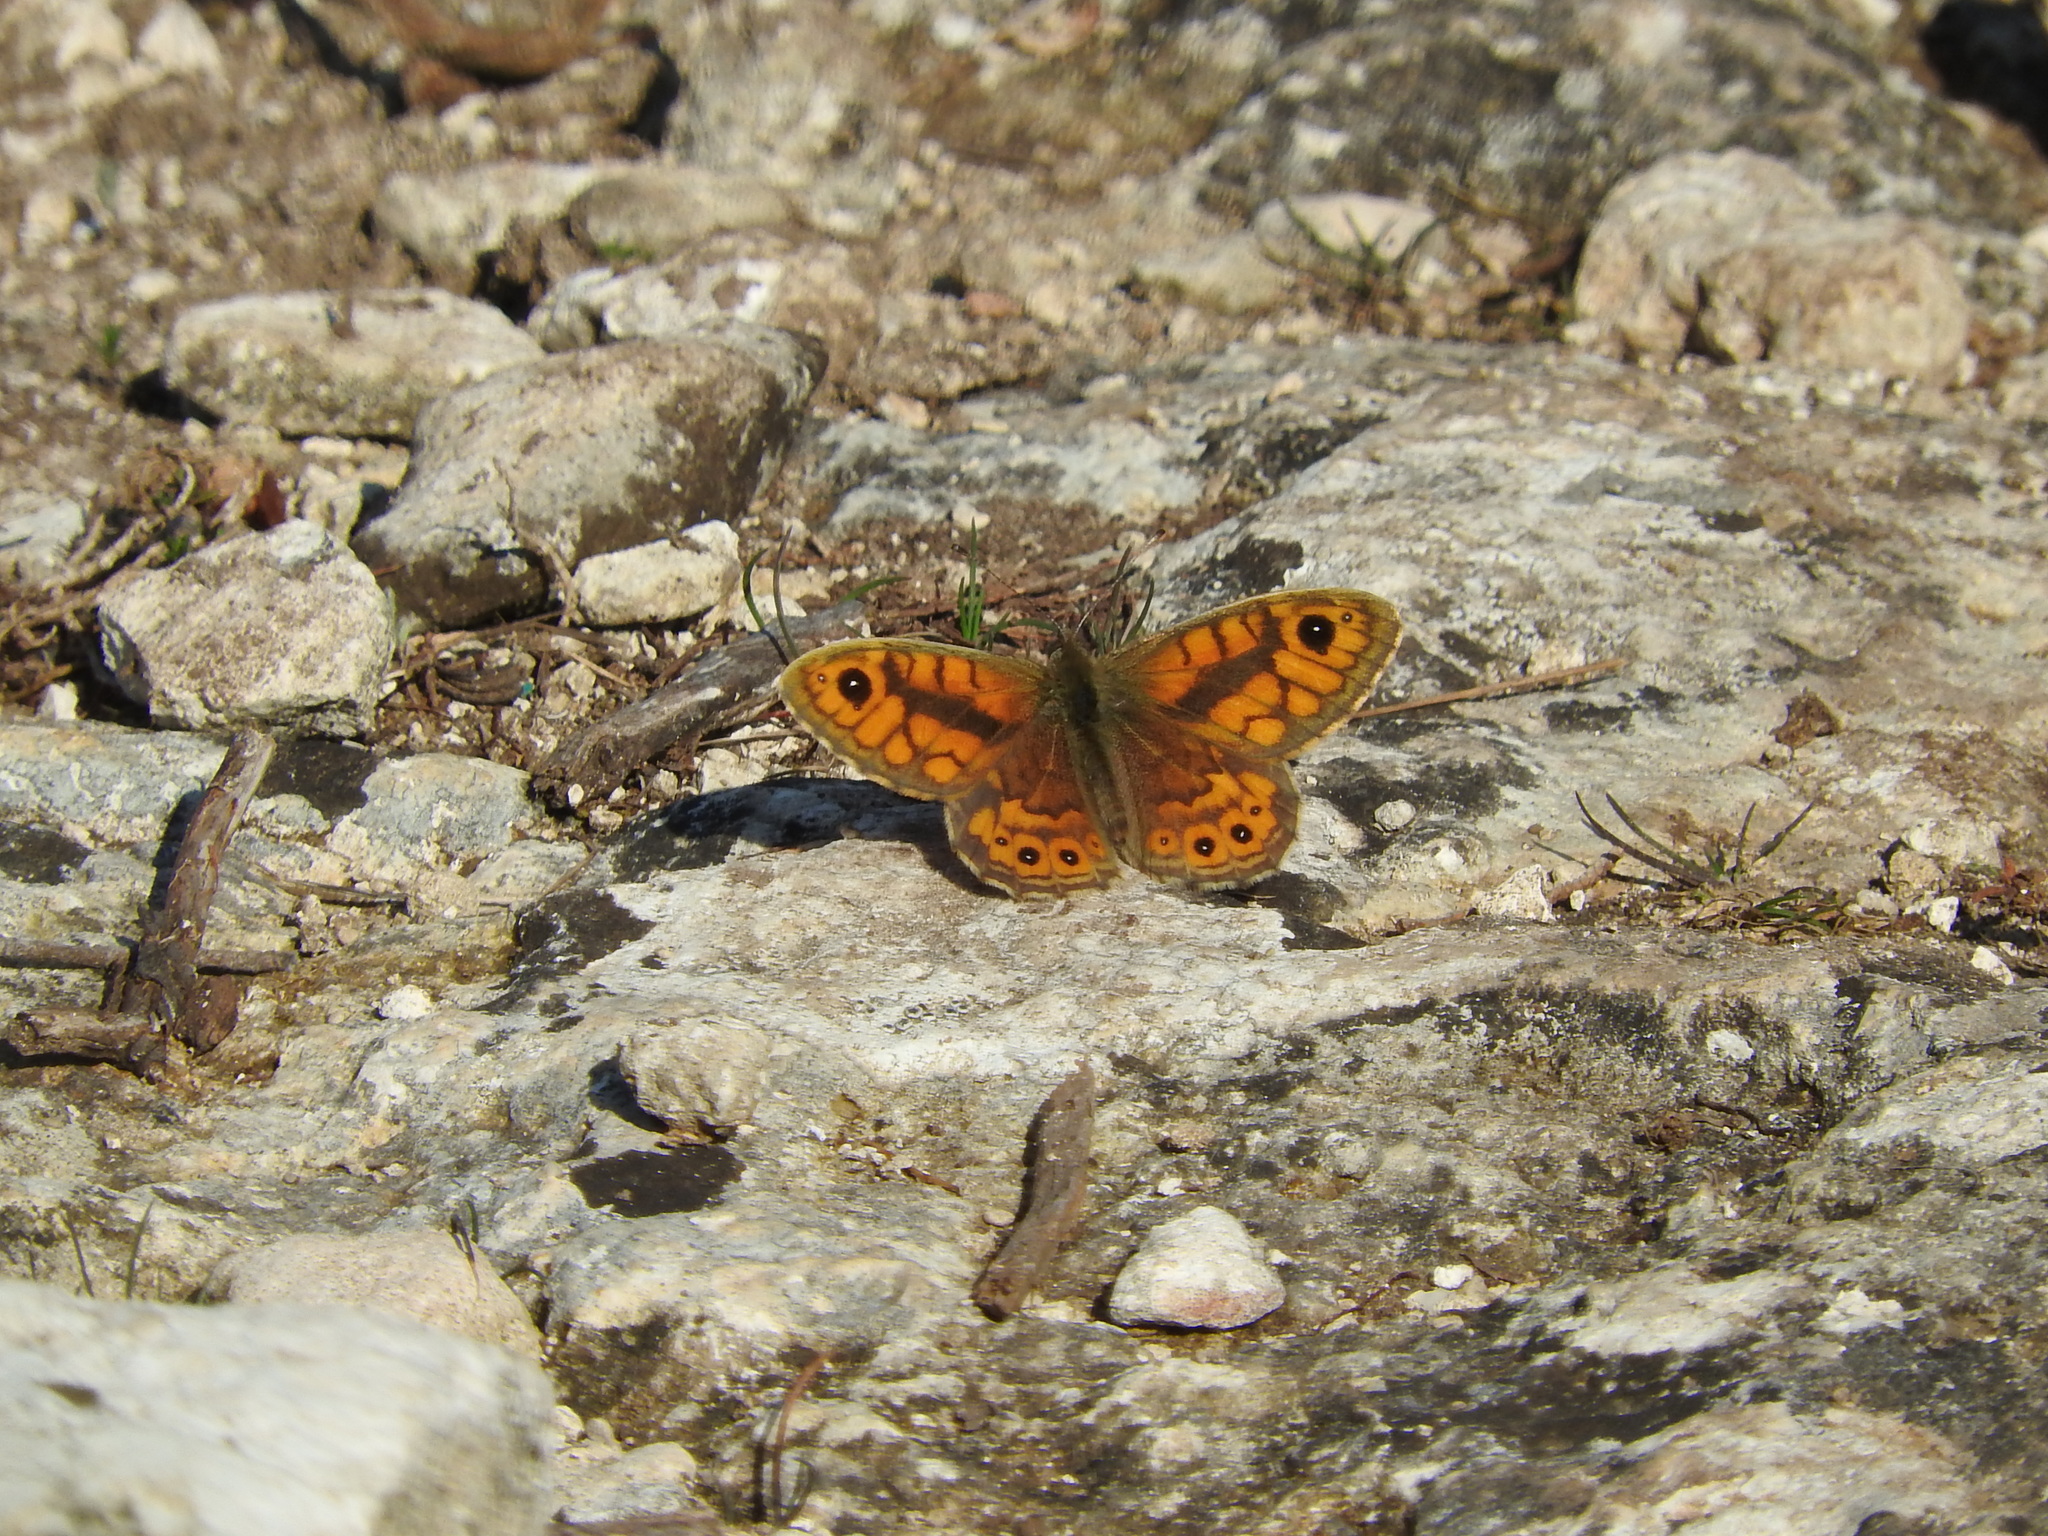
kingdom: Animalia
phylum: Arthropoda
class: Insecta
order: Lepidoptera
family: Nymphalidae
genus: Pararge
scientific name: Pararge Lasiommata megera
